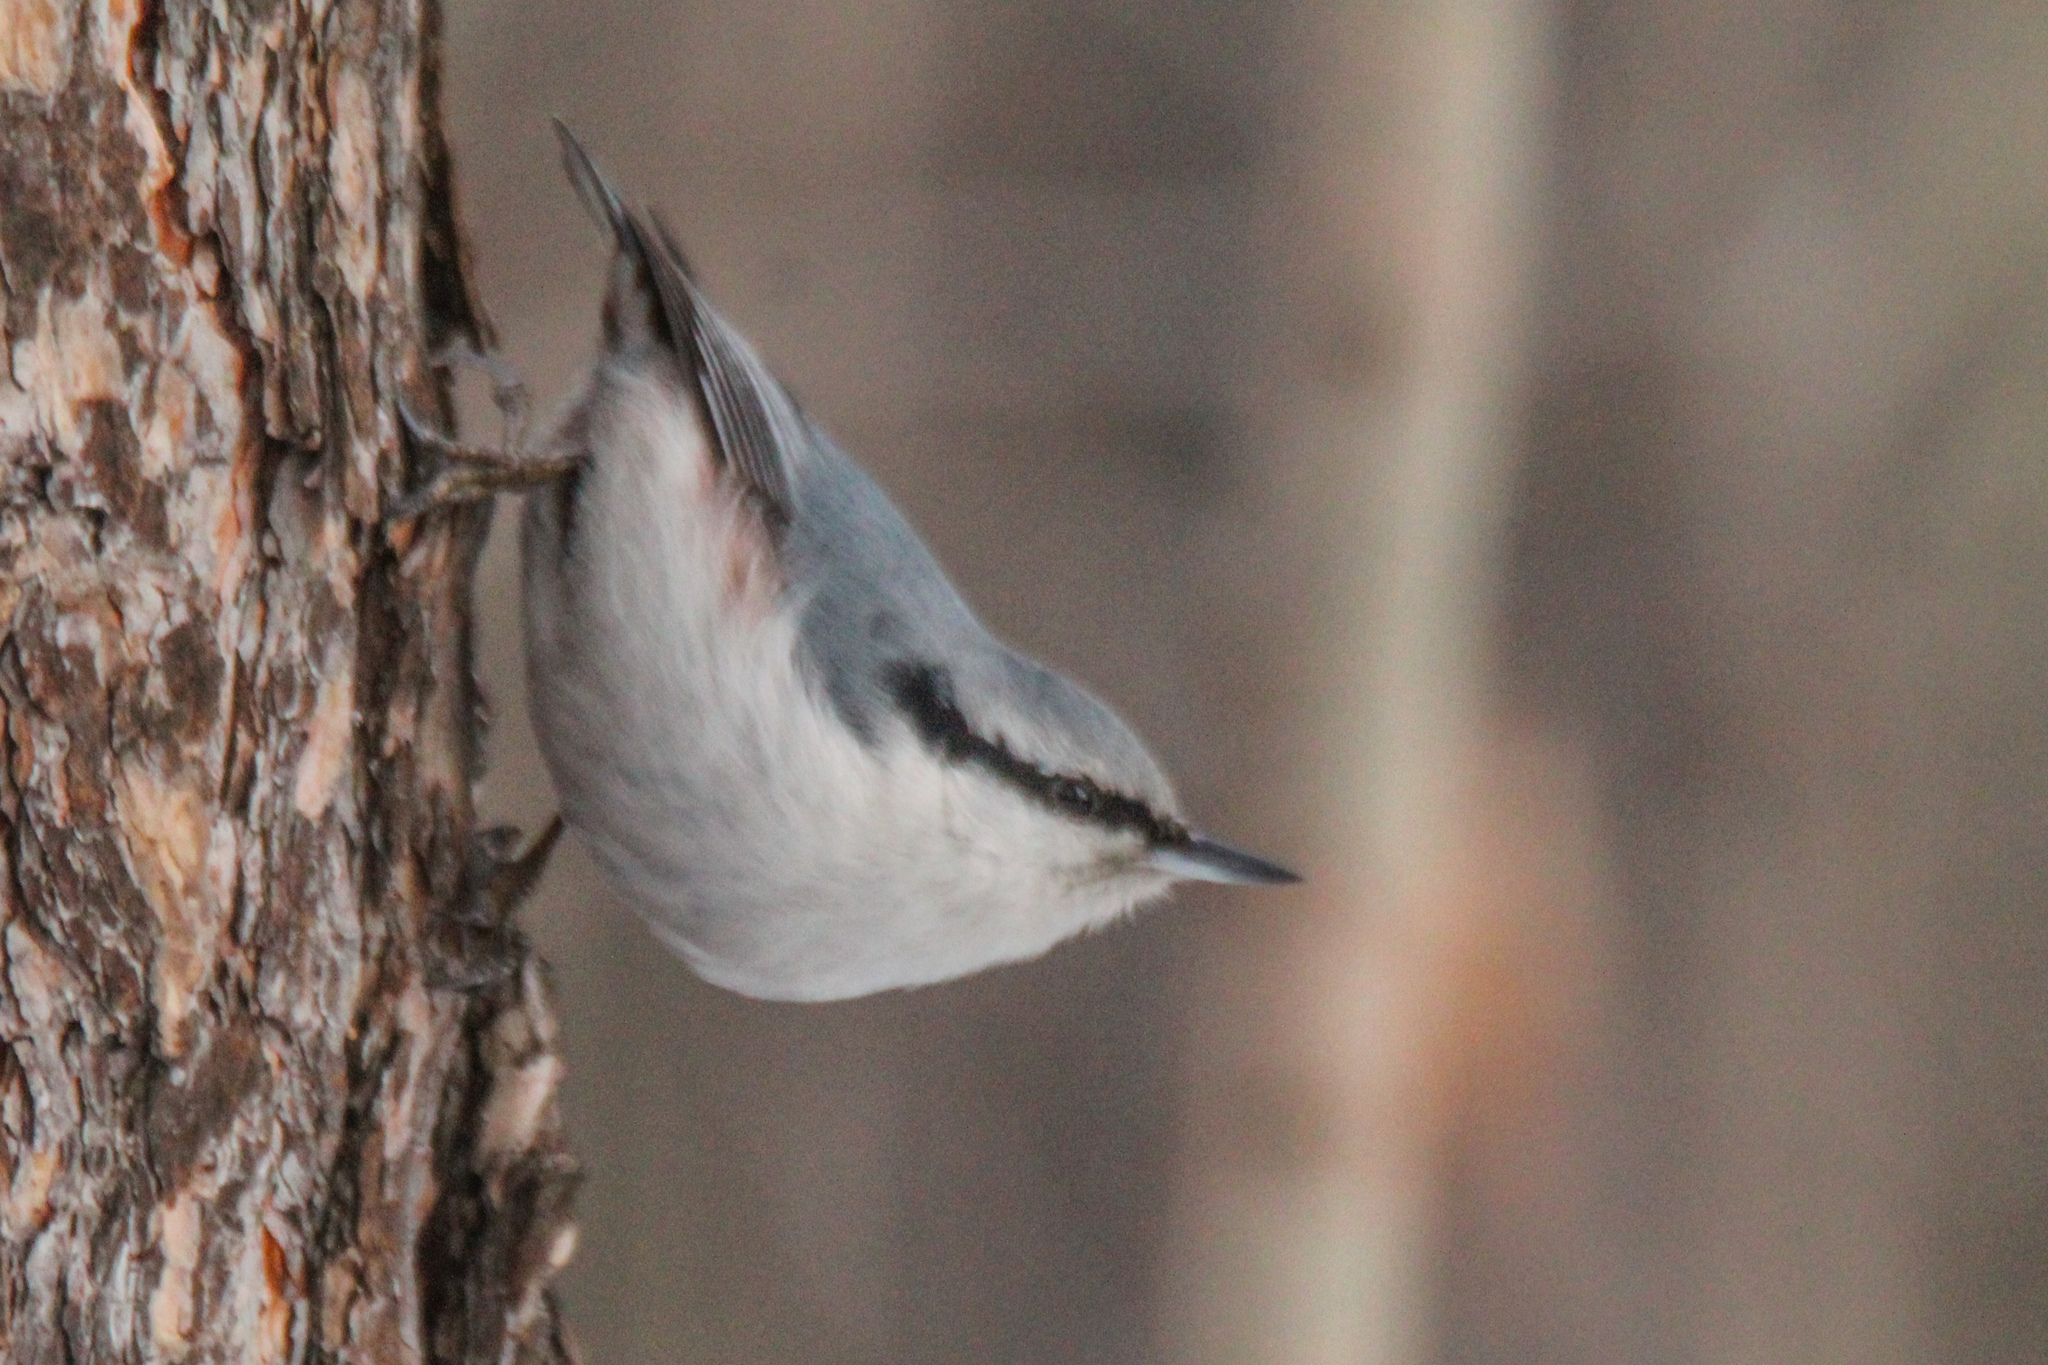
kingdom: Animalia
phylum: Chordata
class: Aves
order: Passeriformes
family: Sittidae
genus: Sitta
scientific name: Sitta europaea
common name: Eurasian nuthatch
